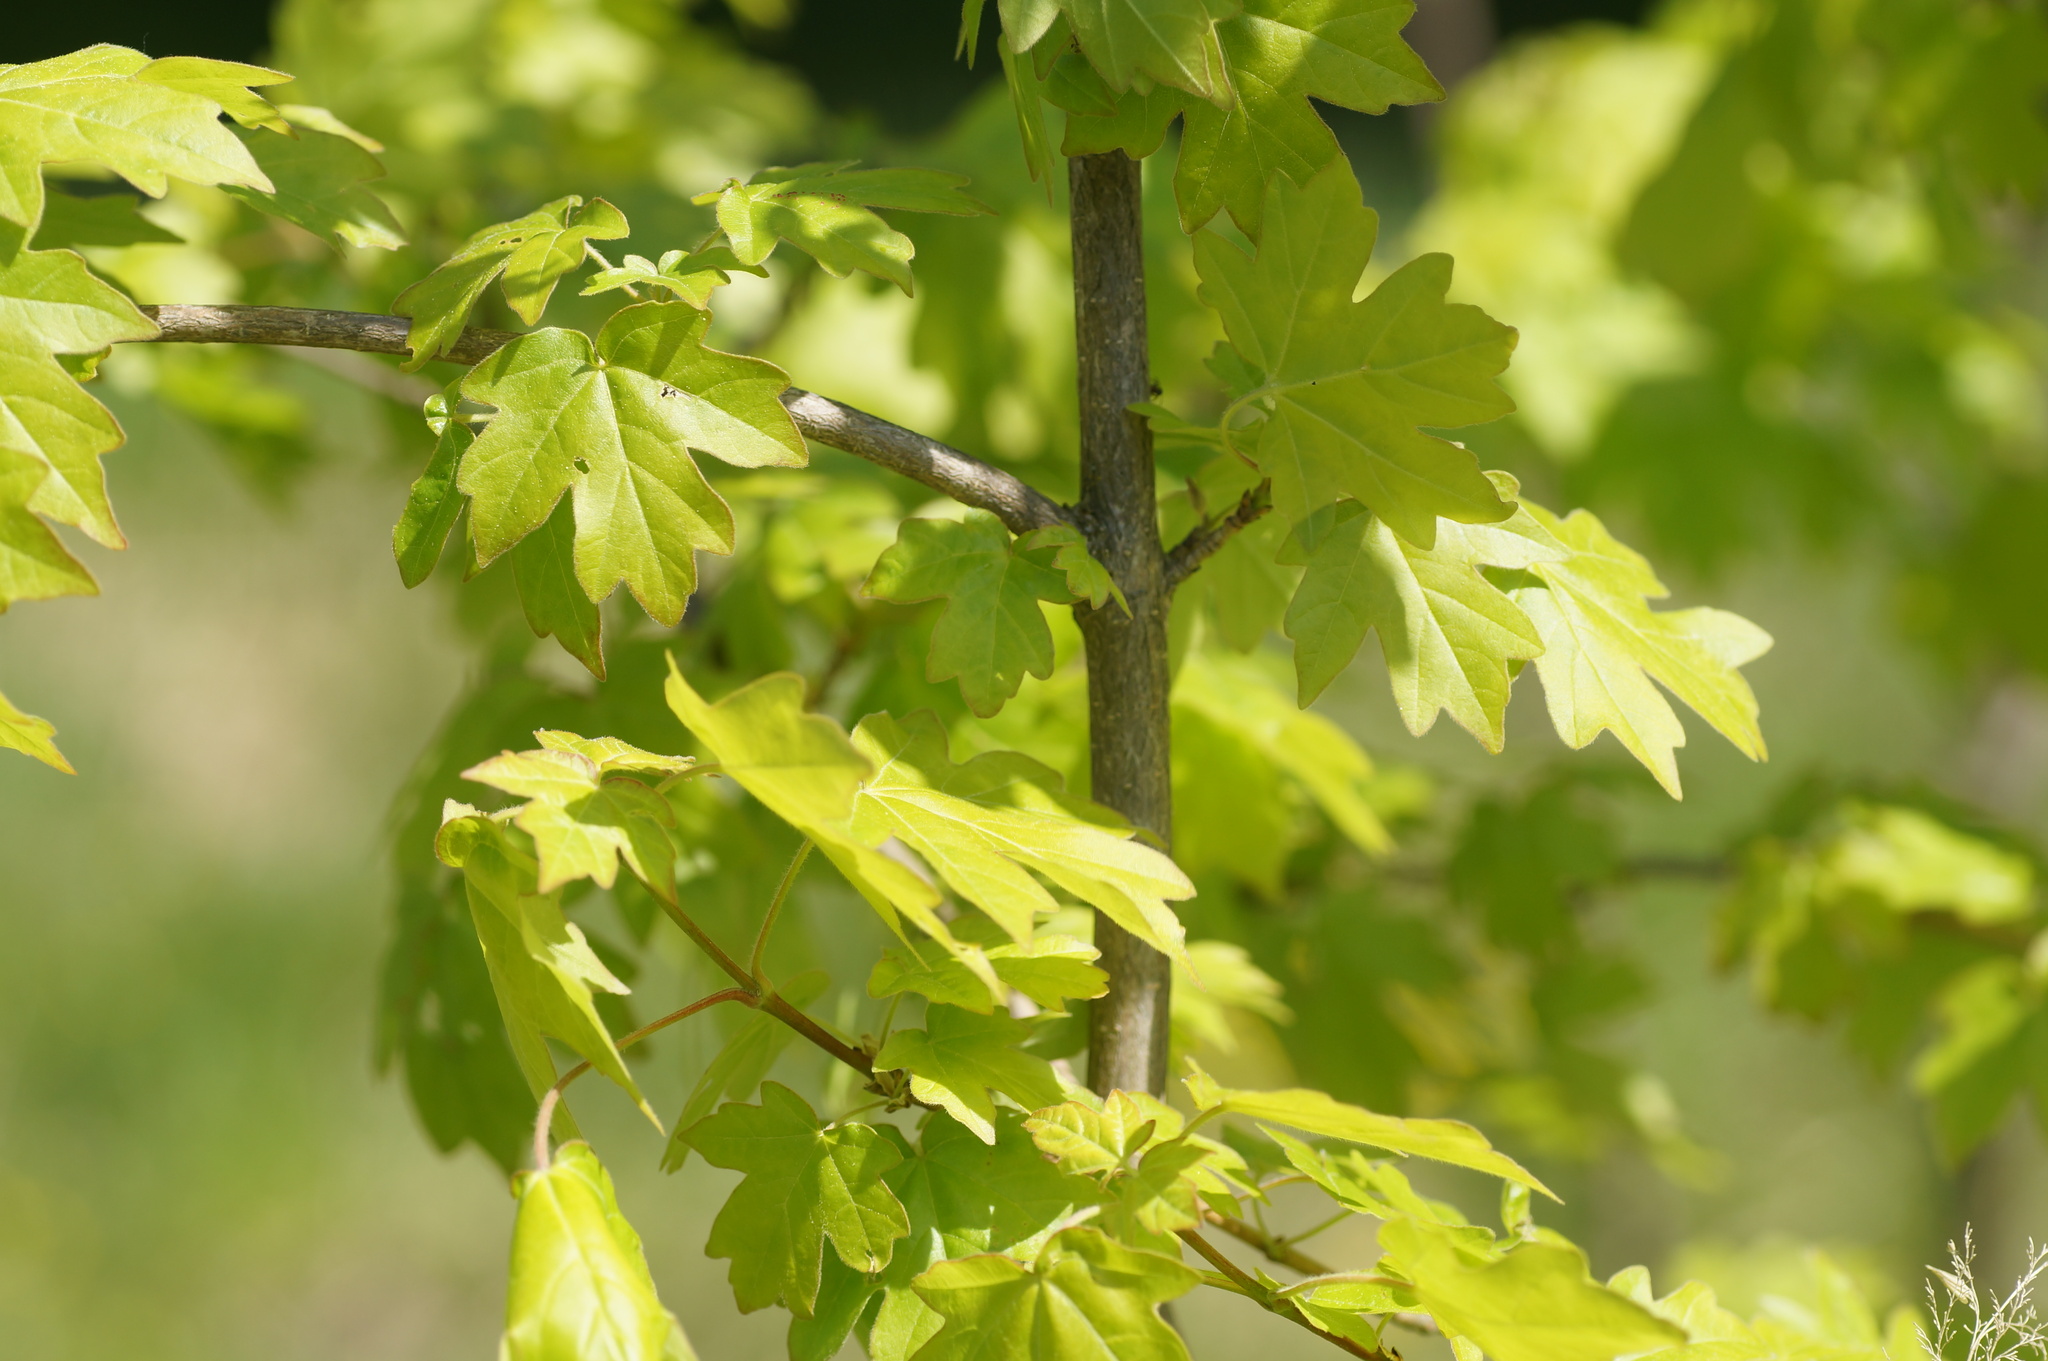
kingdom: Plantae
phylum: Tracheophyta
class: Magnoliopsida
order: Sapindales
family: Sapindaceae
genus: Acer
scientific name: Acer campestre
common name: Field maple
